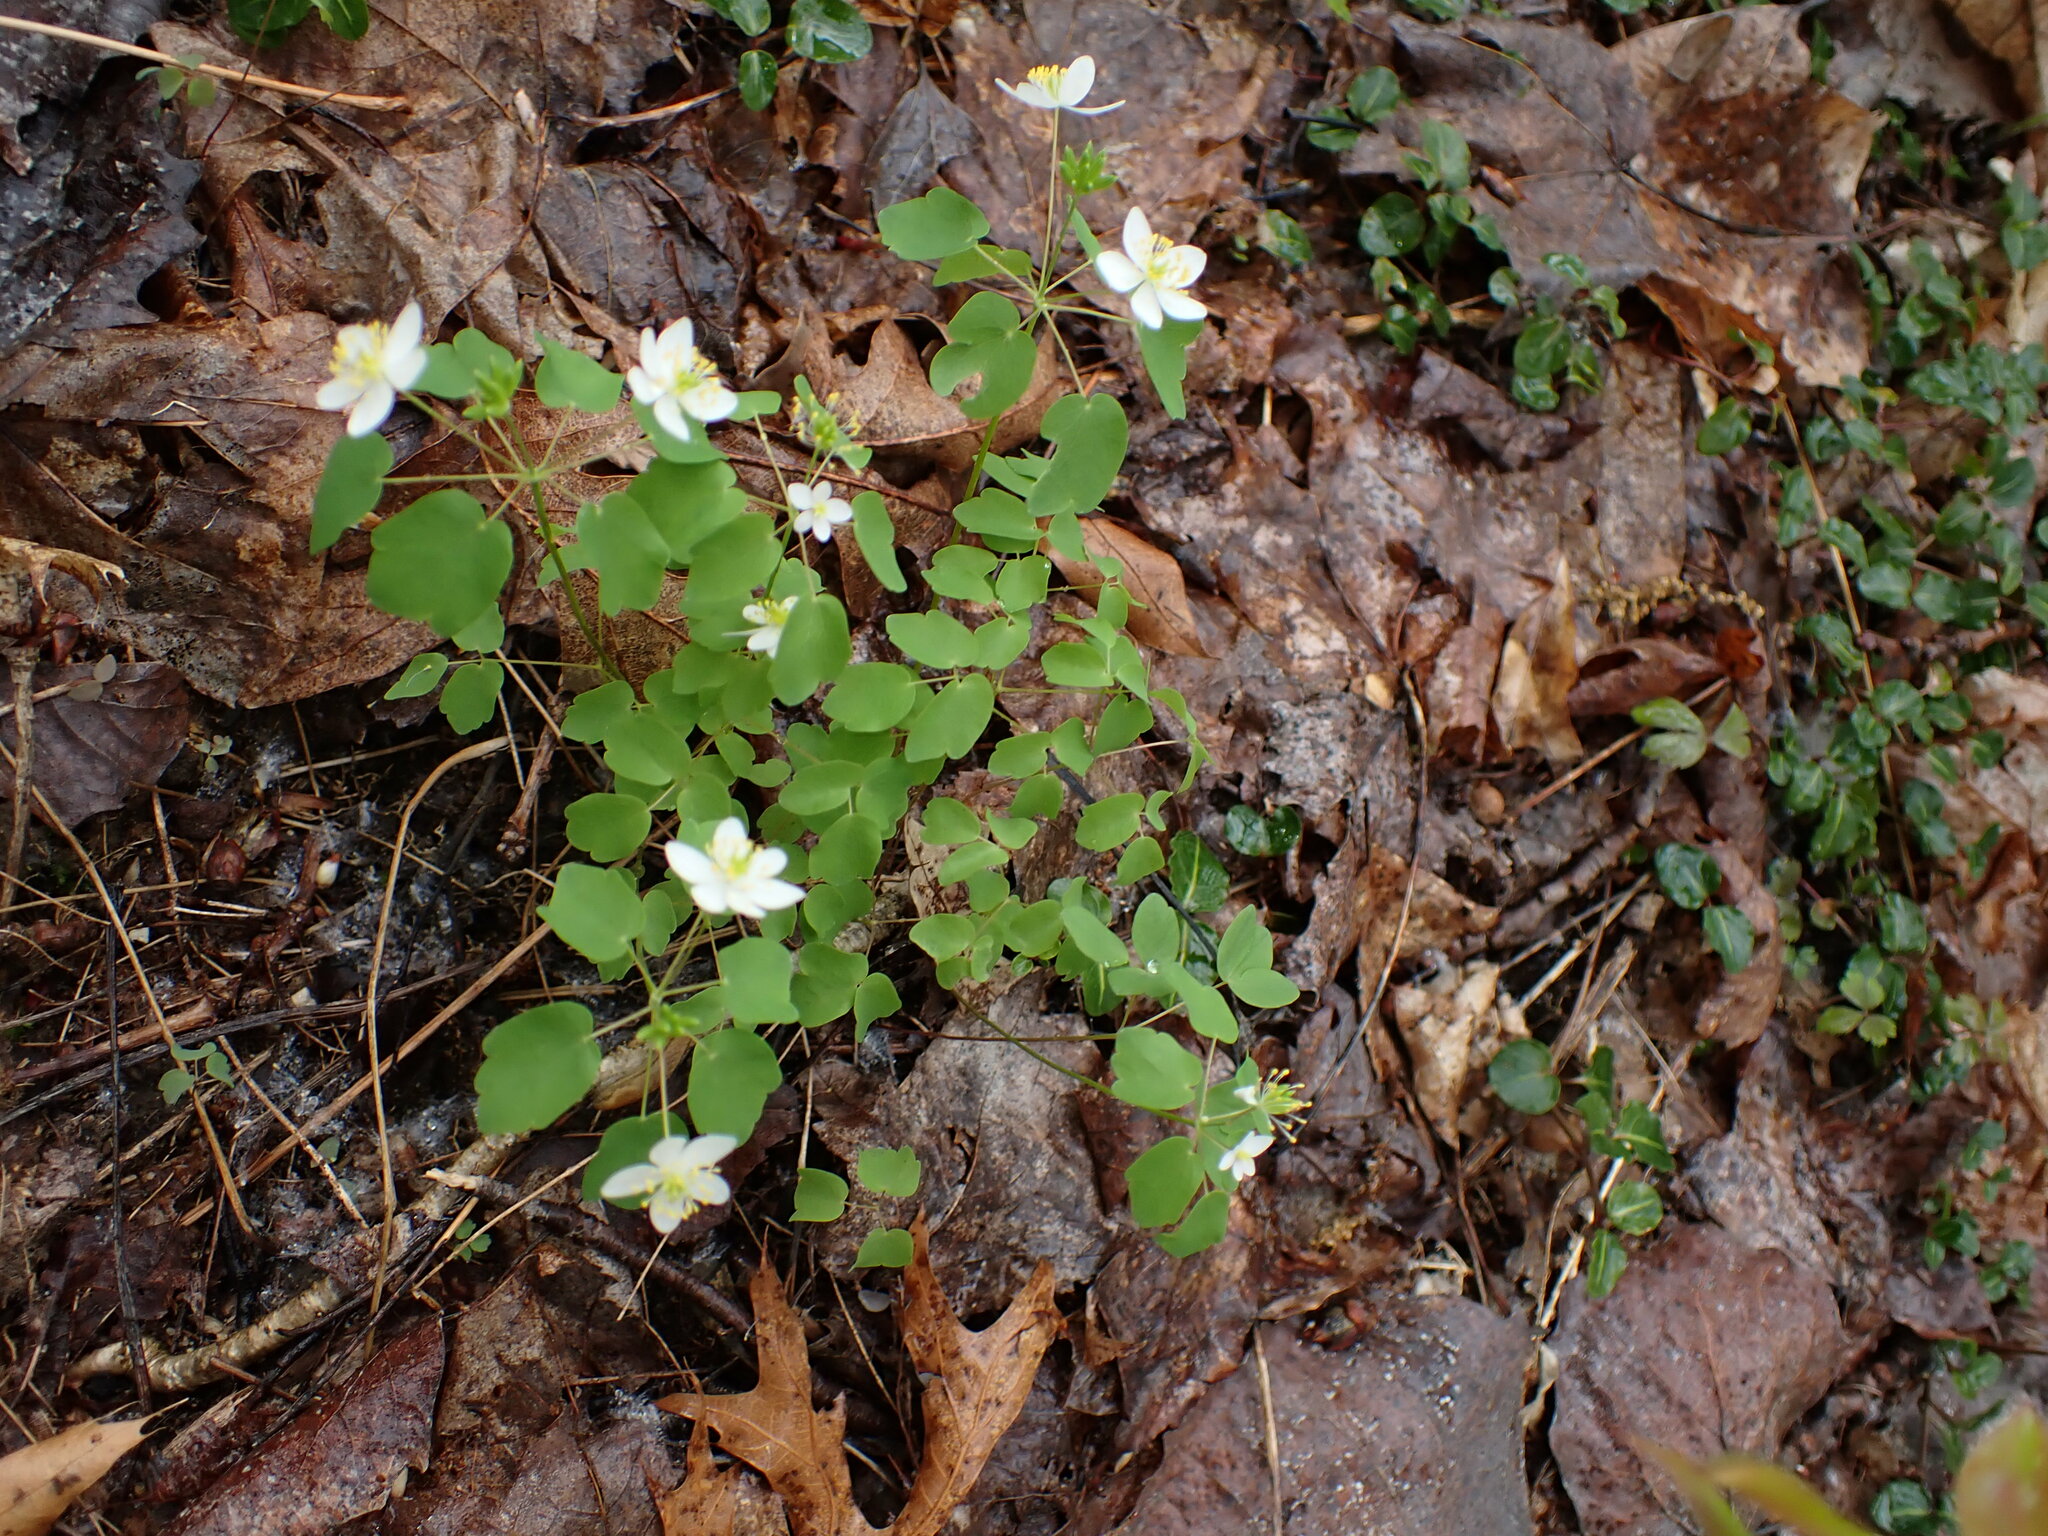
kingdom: Plantae
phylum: Tracheophyta
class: Magnoliopsida
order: Ranunculales
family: Ranunculaceae
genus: Thalictrum
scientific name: Thalictrum thalictroides
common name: Rue-anemone
